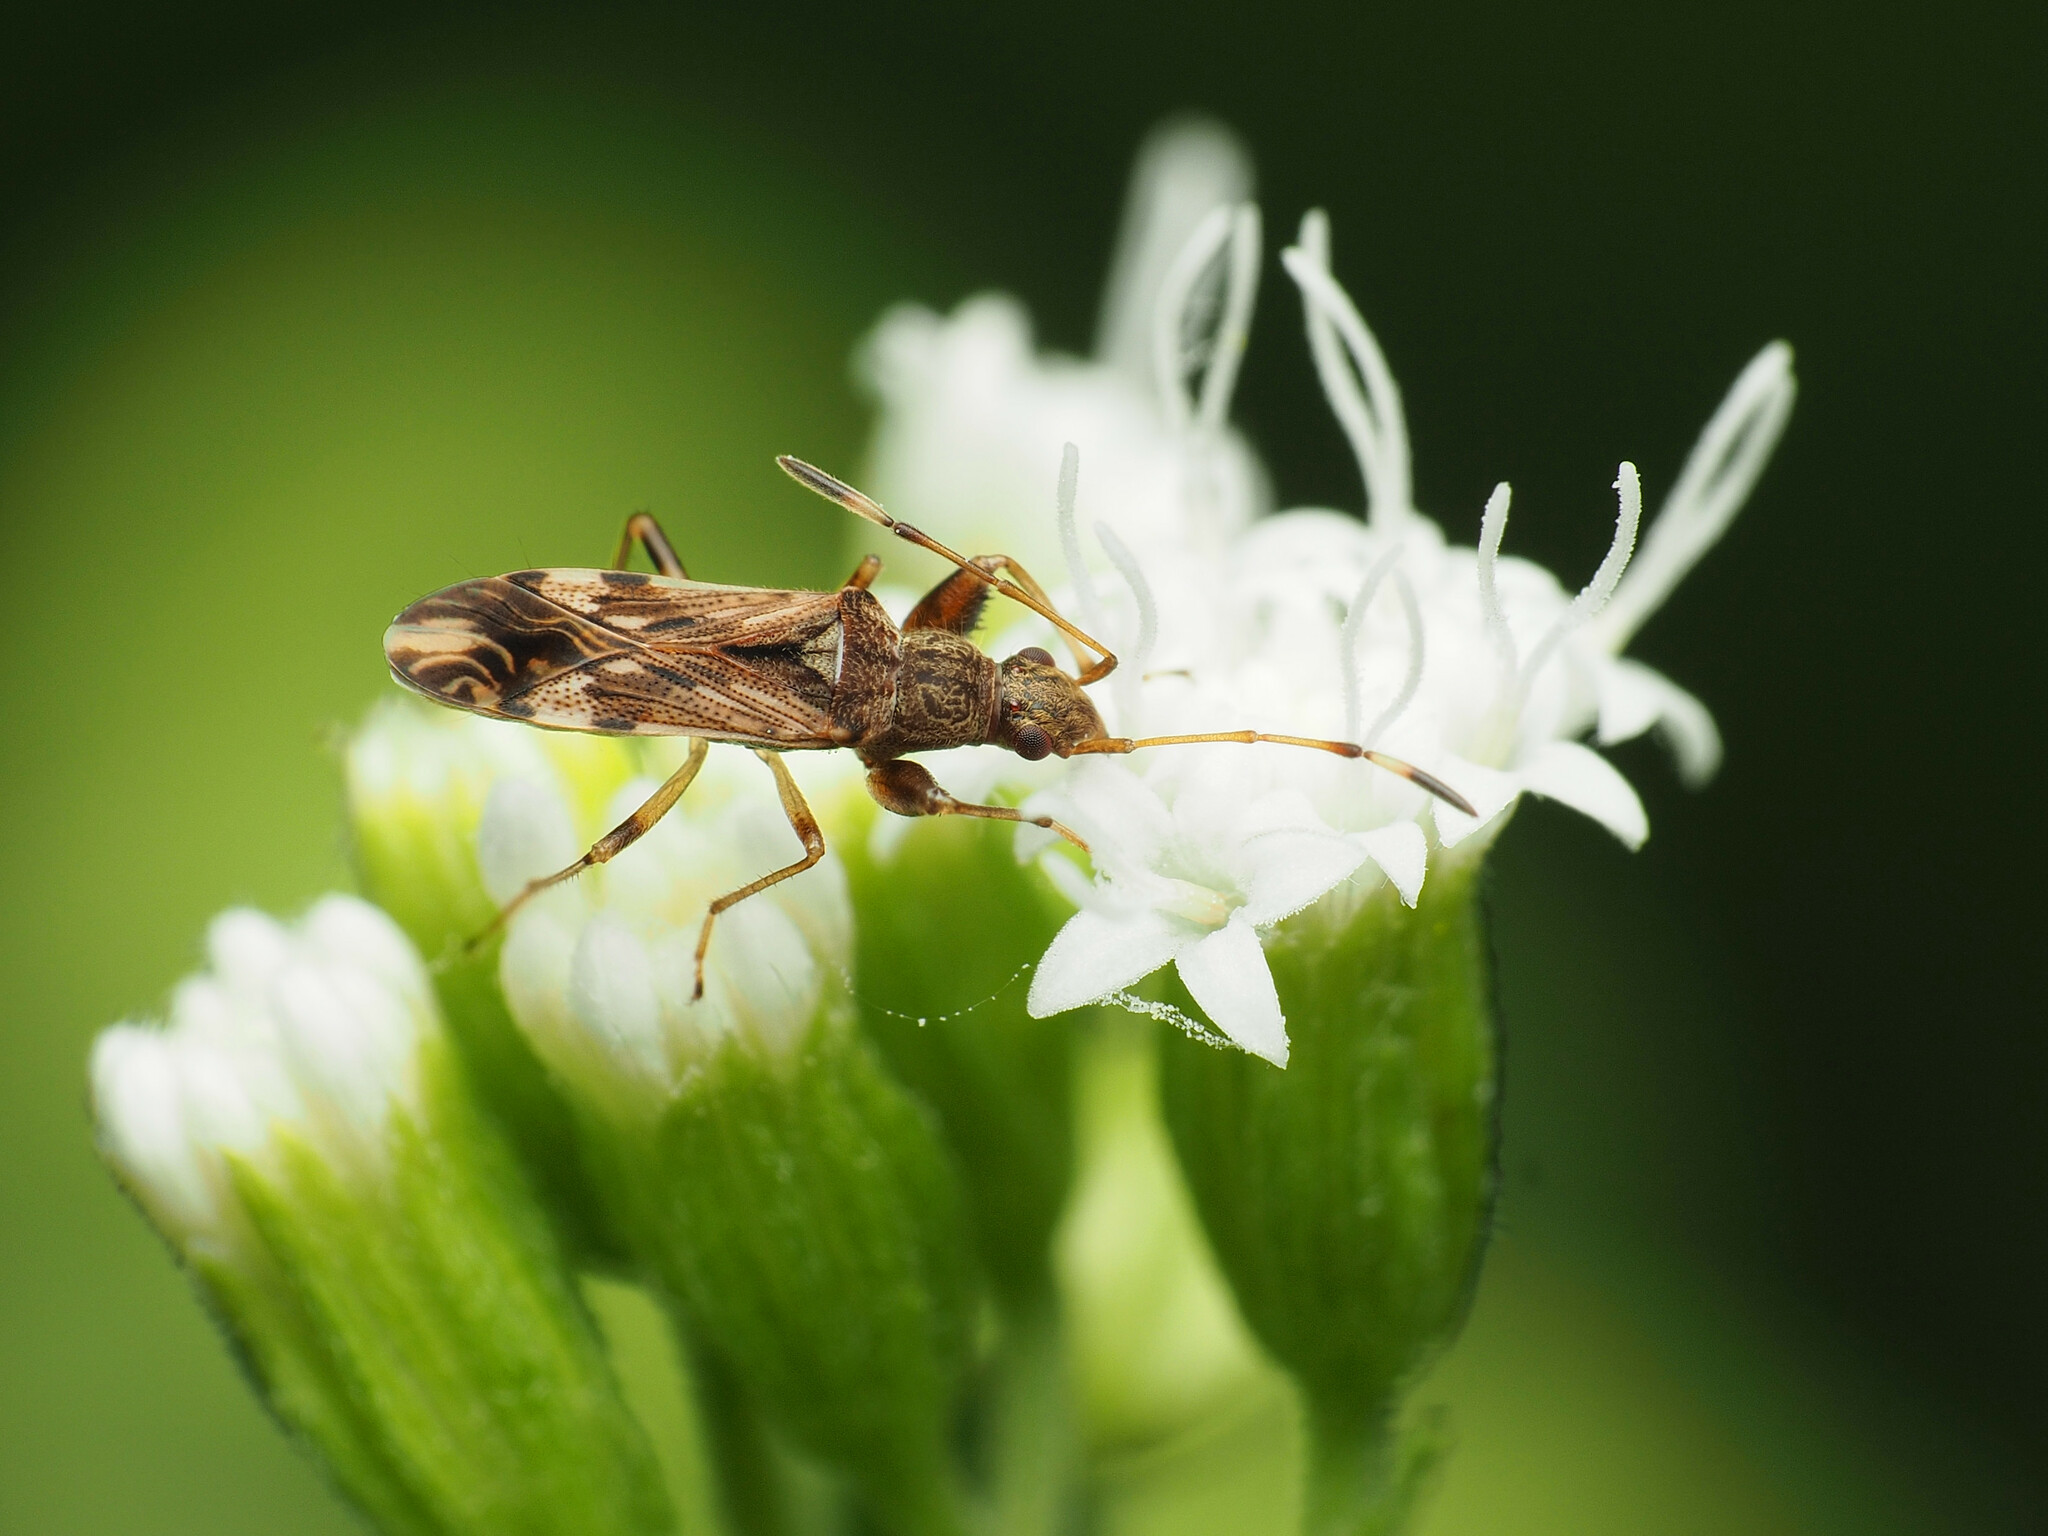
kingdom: Animalia
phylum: Arthropoda
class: Insecta
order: Hemiptera
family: Rhyparochromidae
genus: Neopamera
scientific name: Neopamera albocincta
